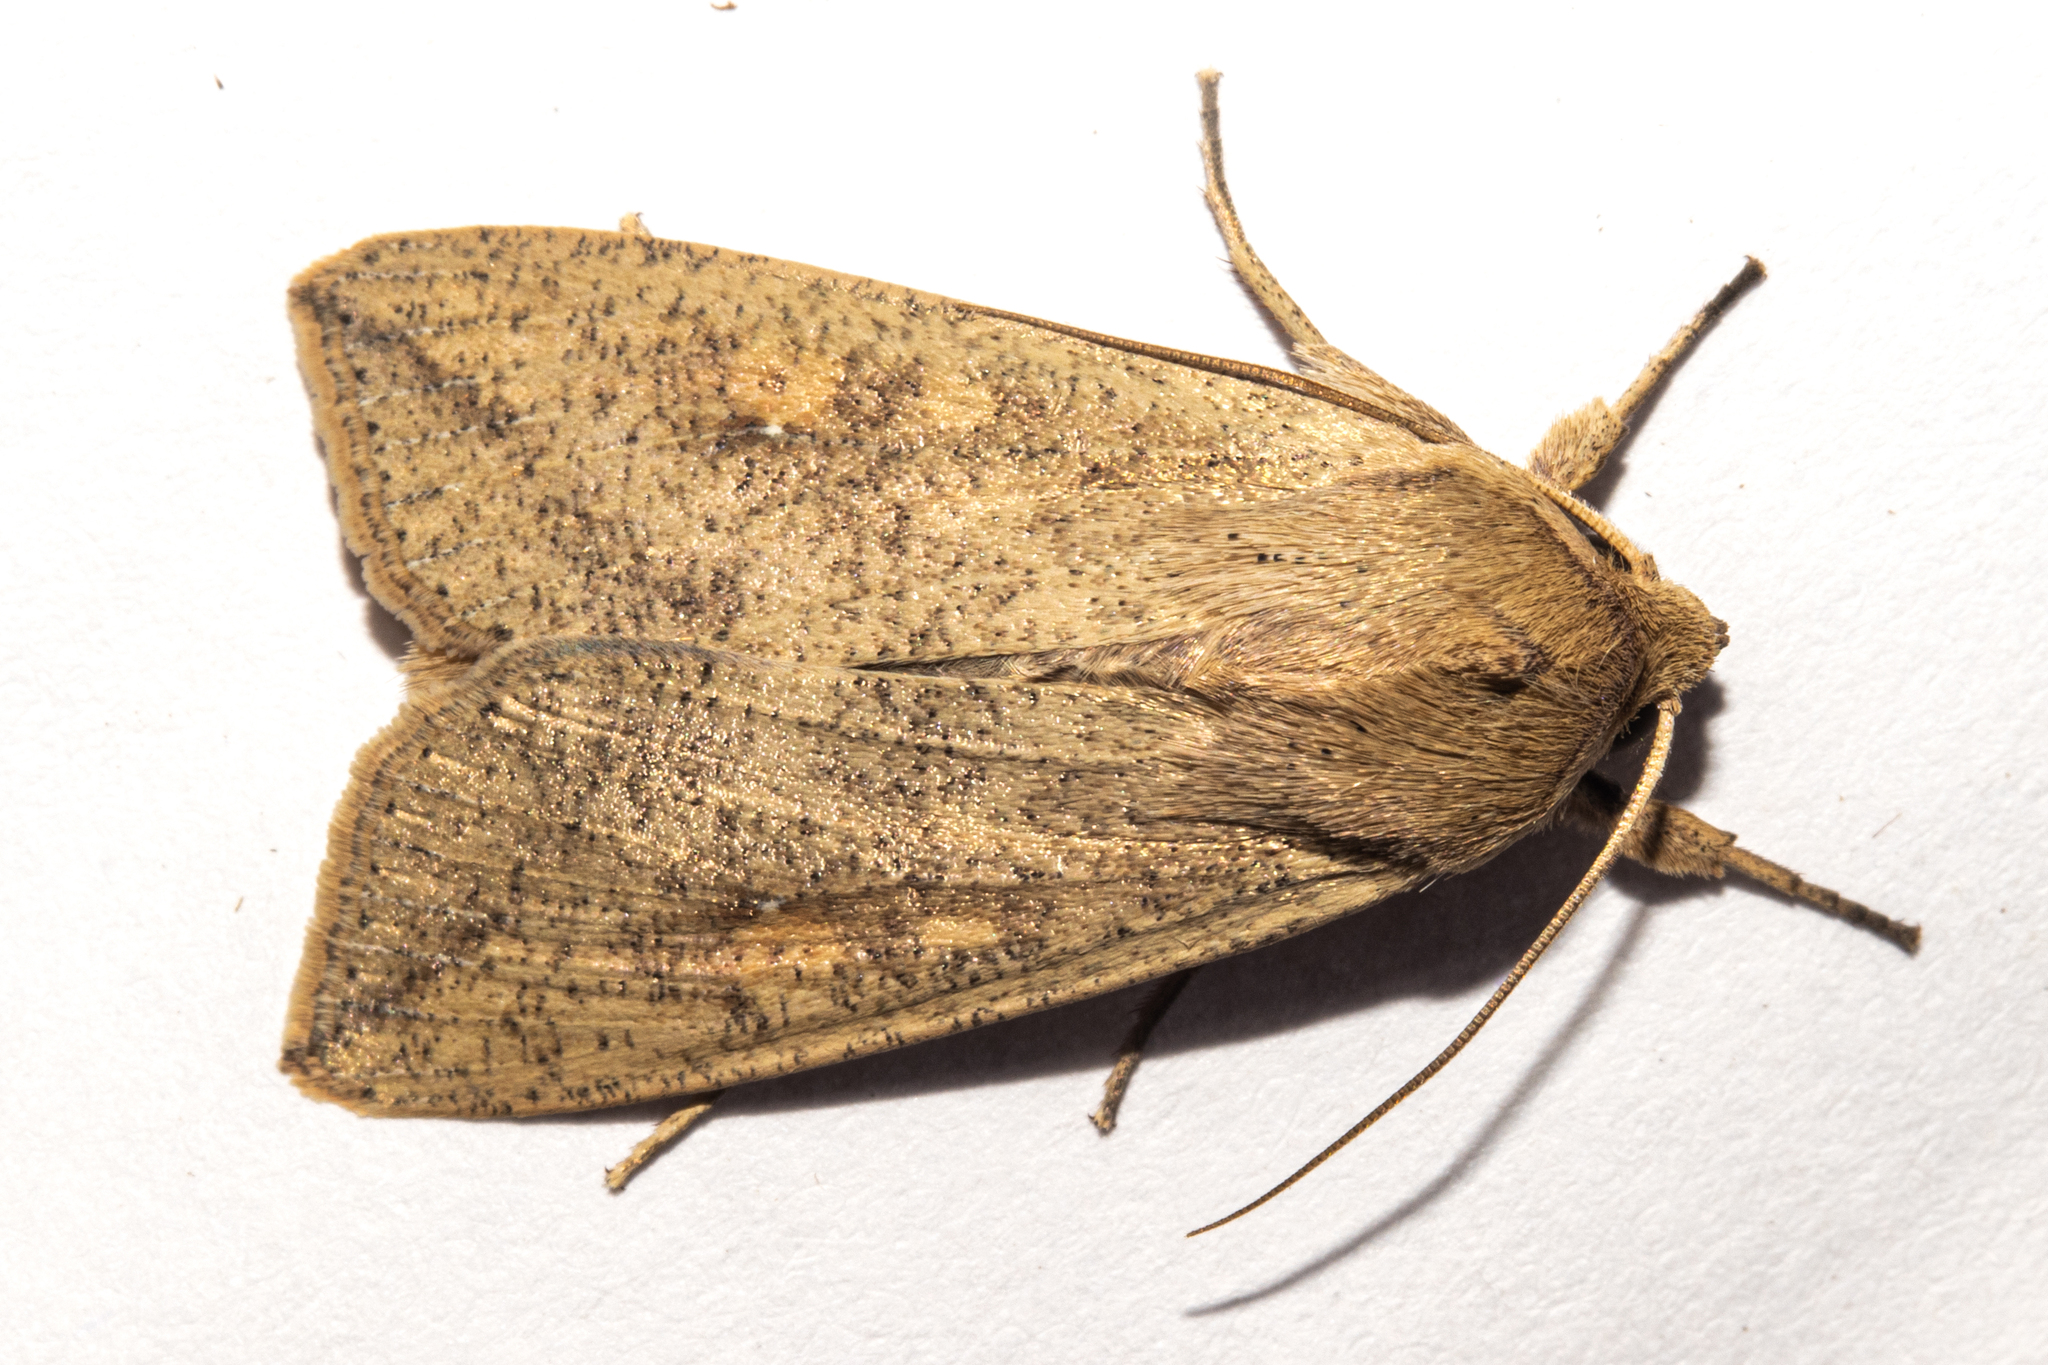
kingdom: Animalia
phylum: Arthropoda
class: Insecta
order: Lepidoptera
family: Noctuidae
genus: Mythimna
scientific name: Mythimna separata
